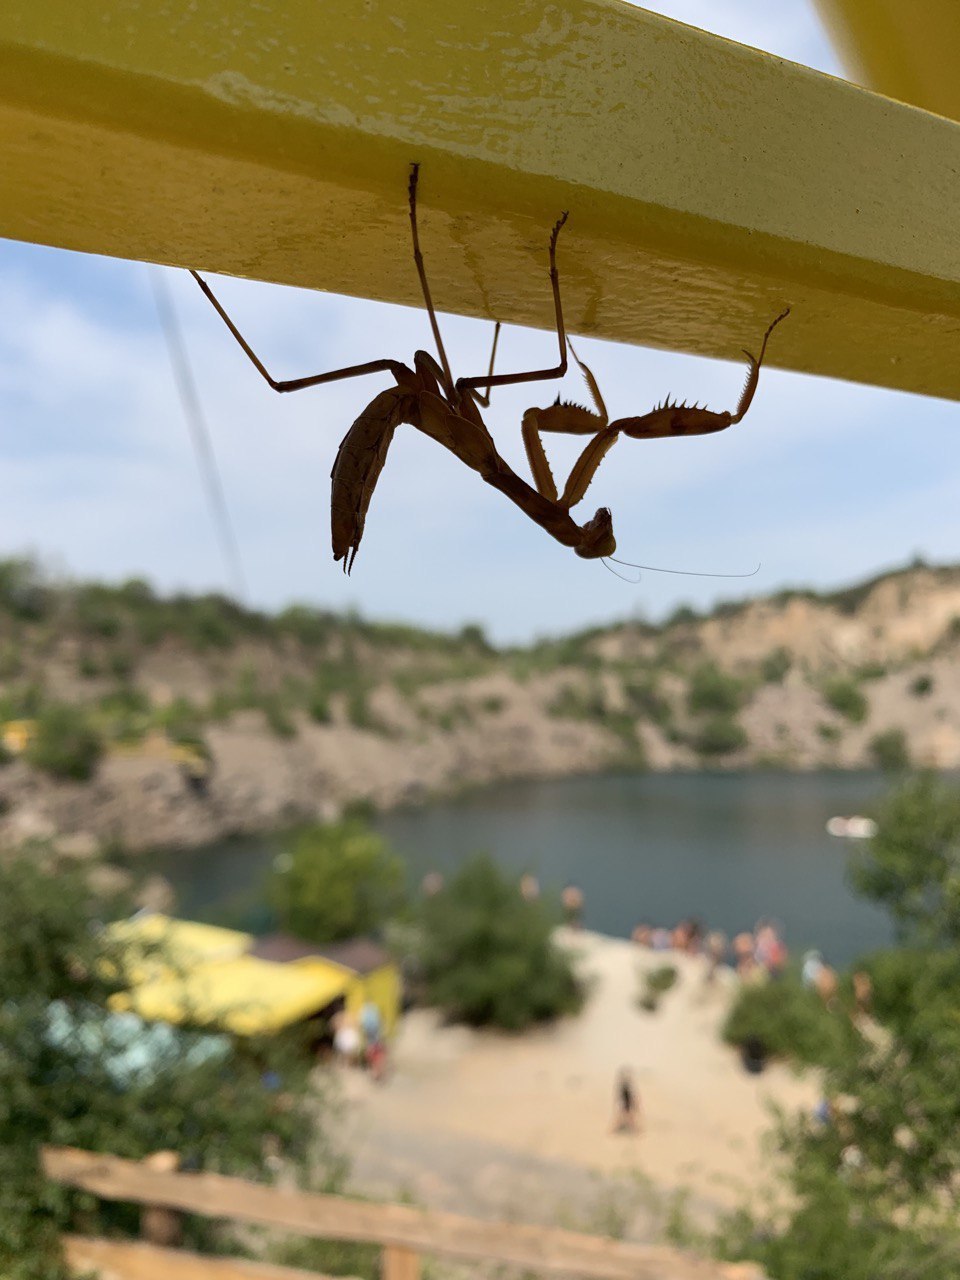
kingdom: Animalia
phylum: Arthropoda
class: Insecta
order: Mantodea
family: Mantidae
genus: Hierodula
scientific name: Hierodula transcaucasica
